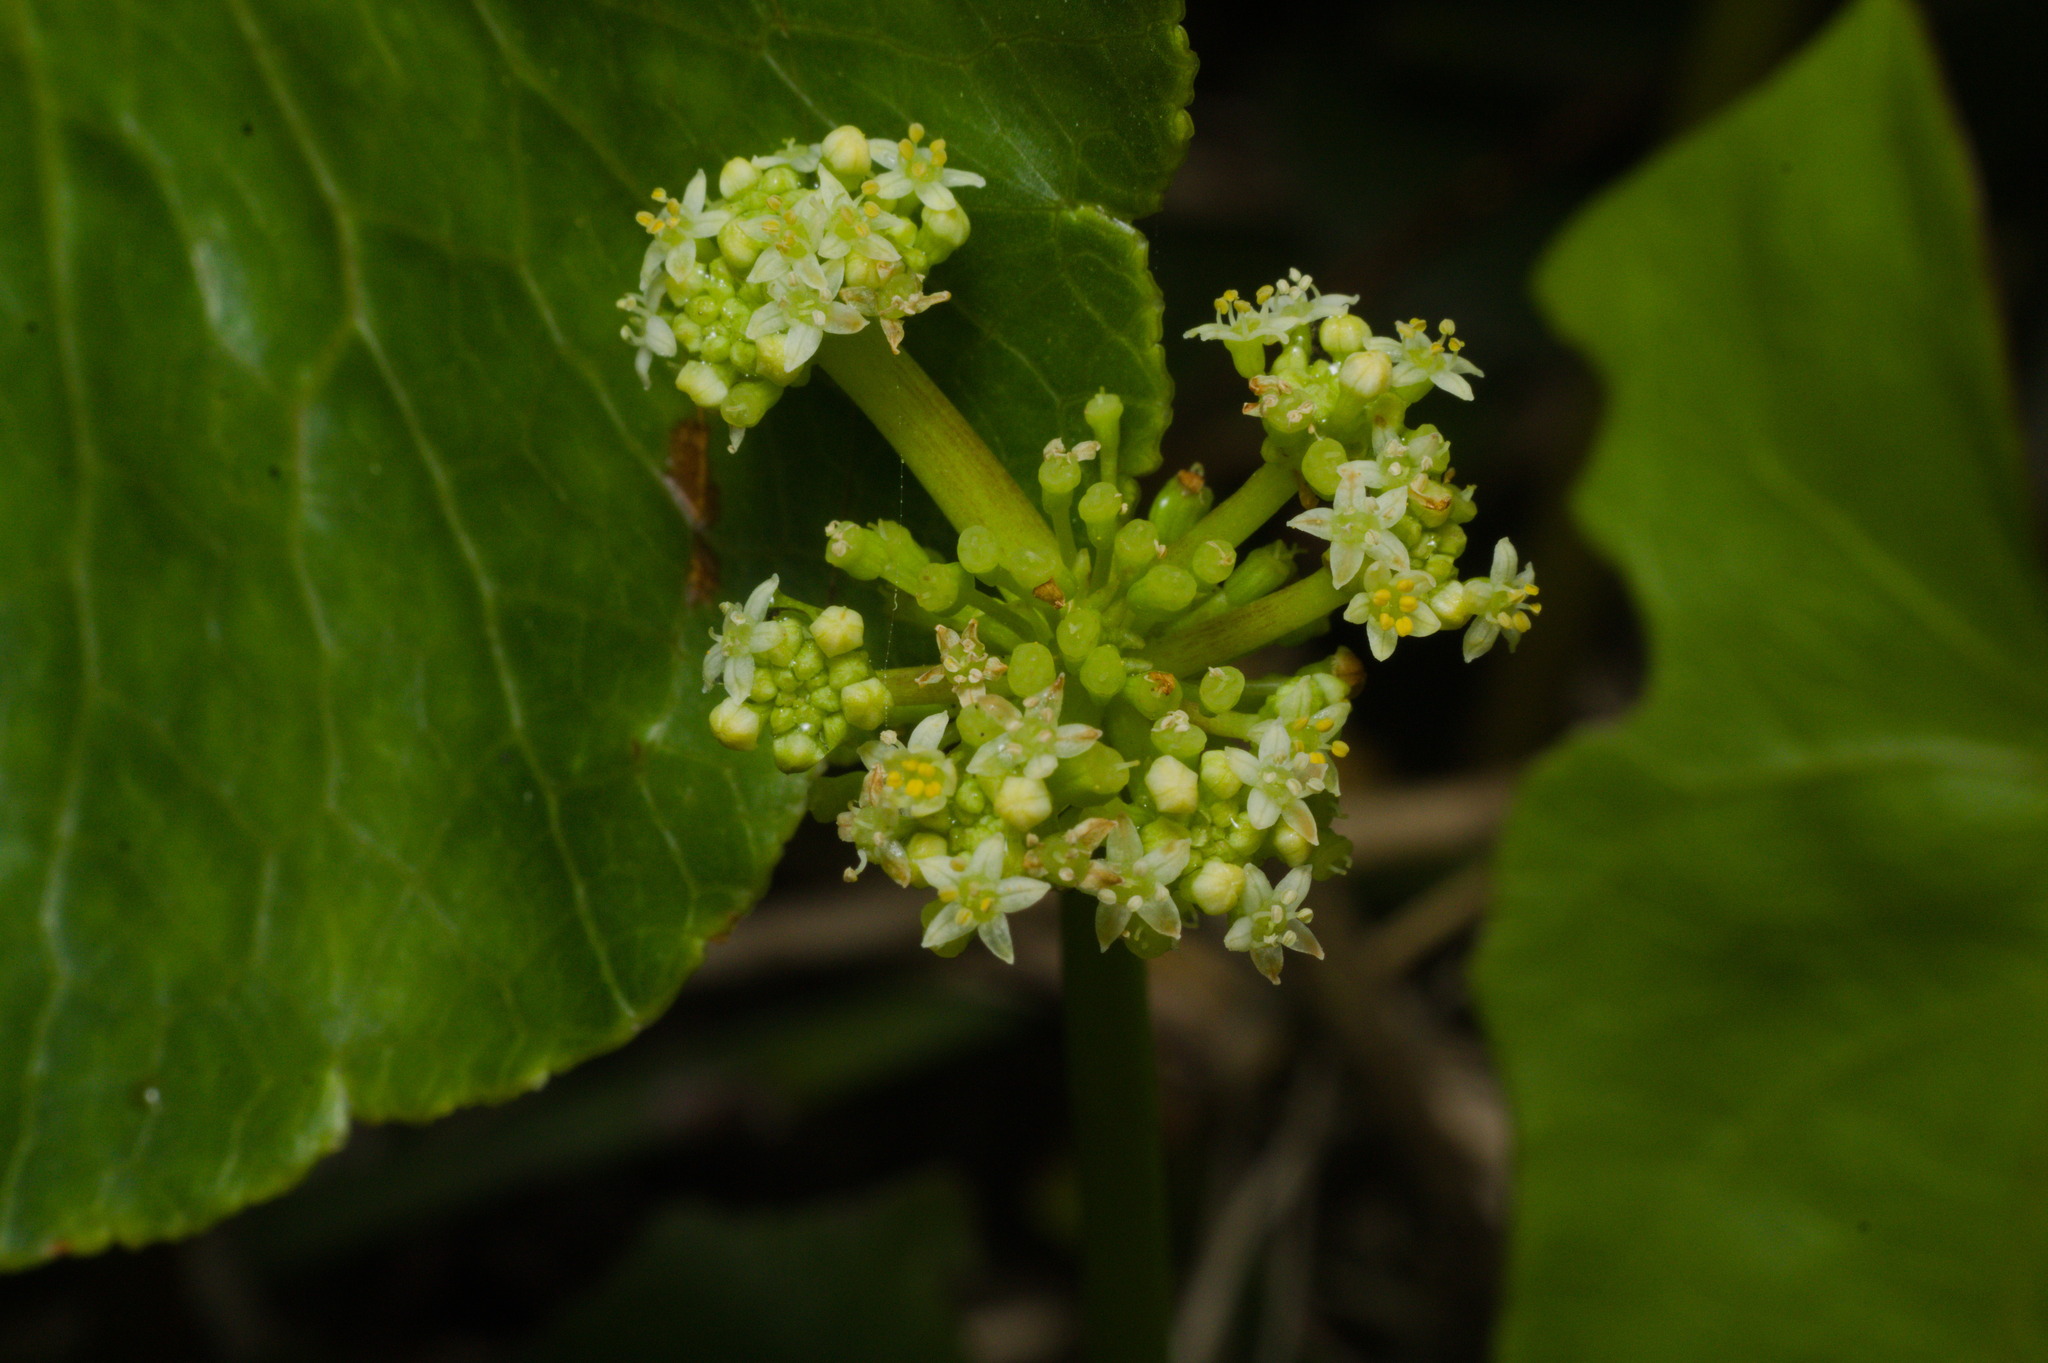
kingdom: Plantae
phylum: Tracheophyta
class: Magnoliopsida
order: Apiales
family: Araliaceae
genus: Hydrocotyle
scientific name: Hydrocotyle bonariensis
